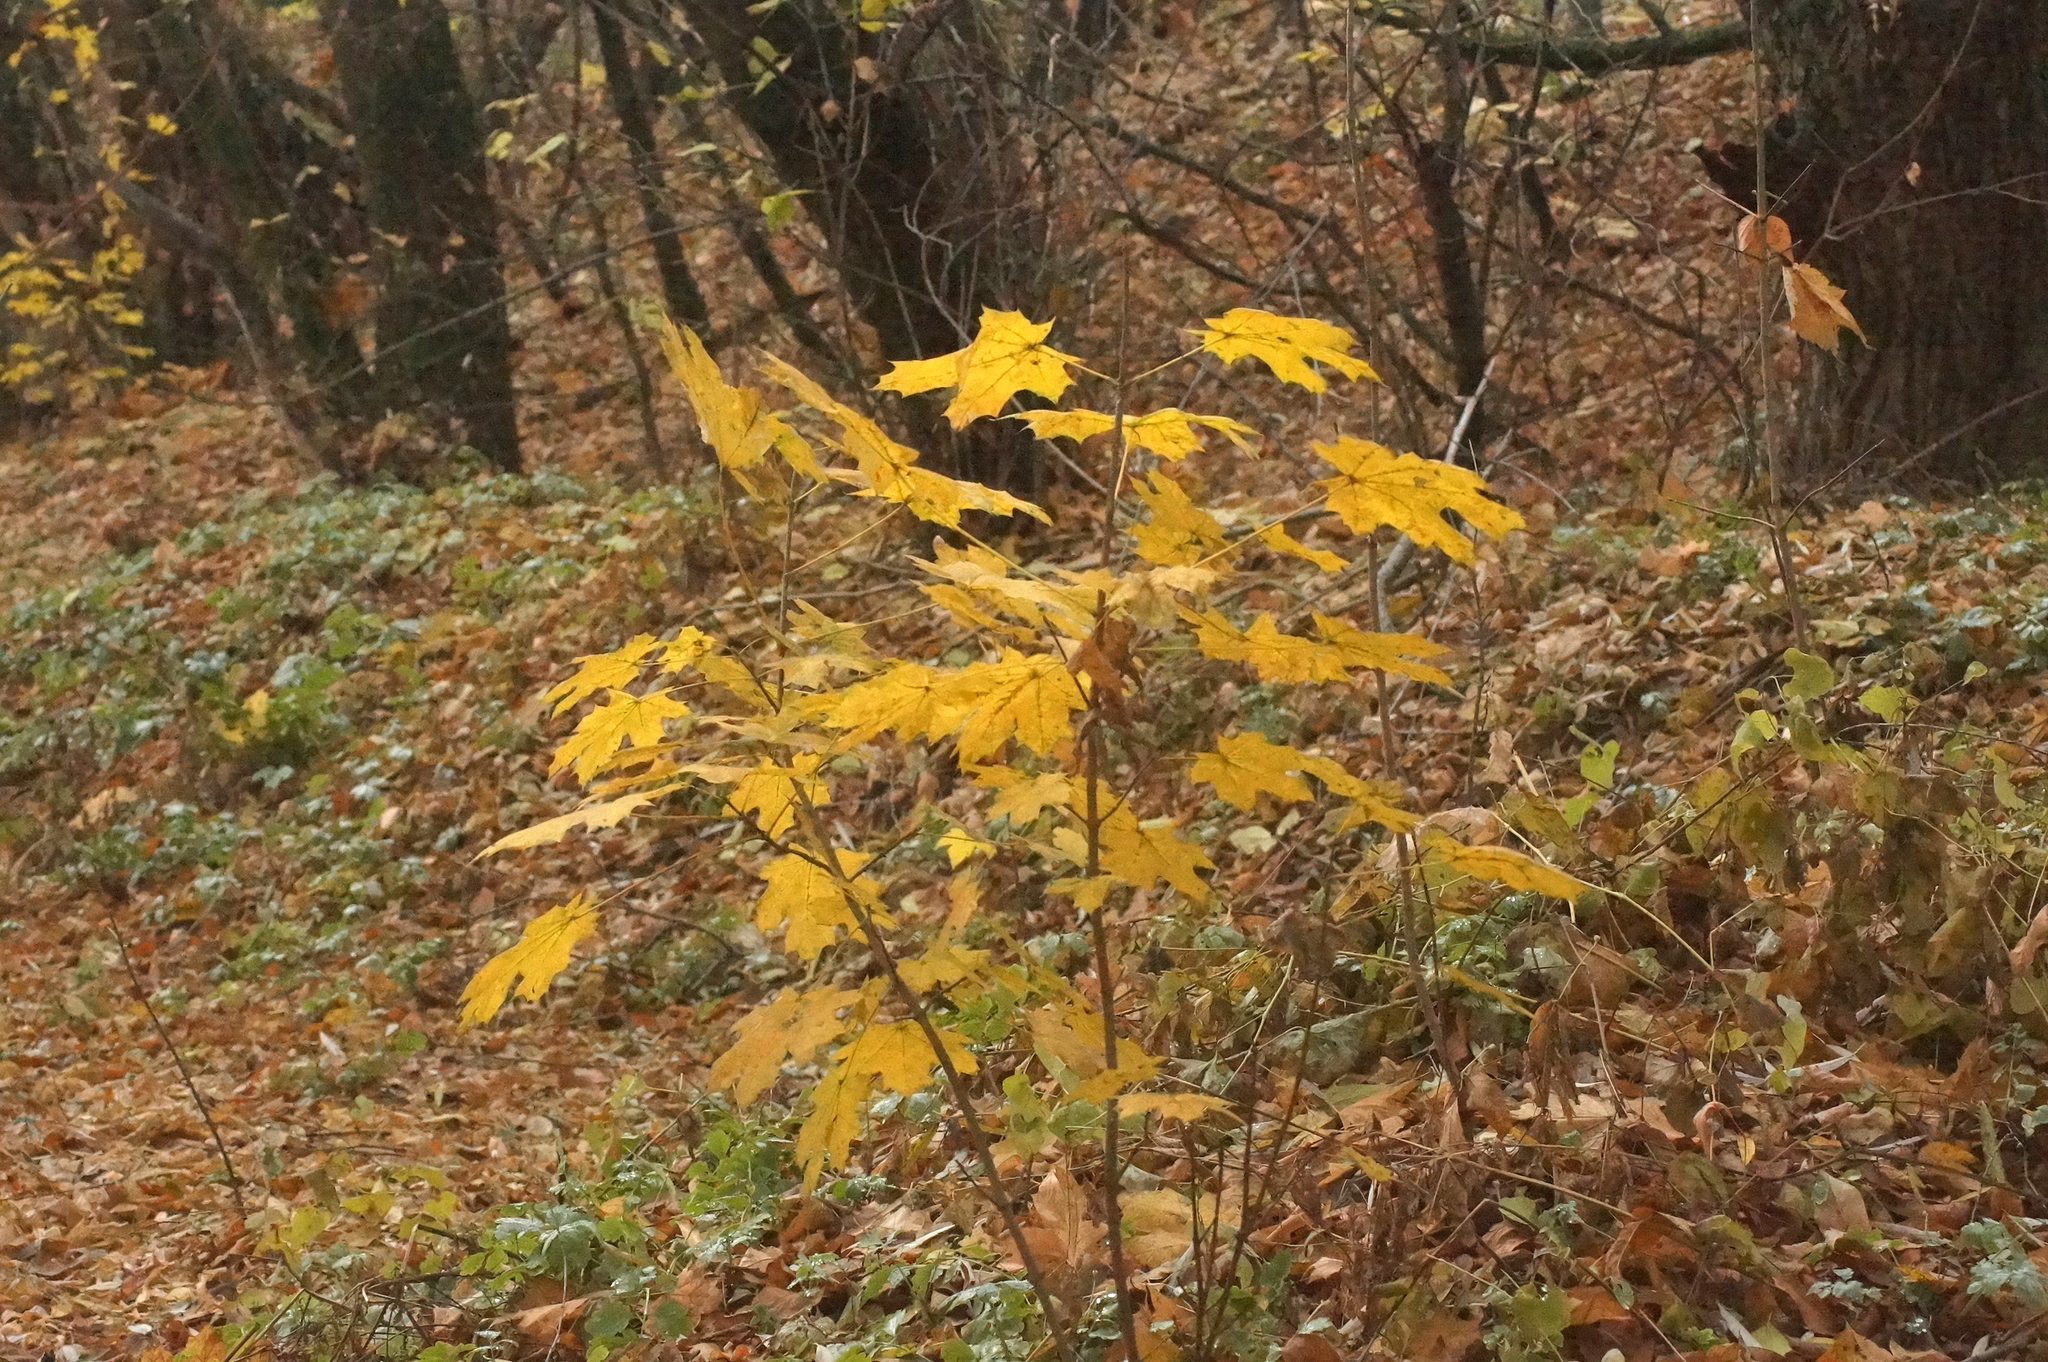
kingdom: Plantae
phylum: Tracheophyta
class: Magnoliopsida
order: Sapindales
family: Sapindaceae
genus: Acer
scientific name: Acer platanoides
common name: Norway maple
